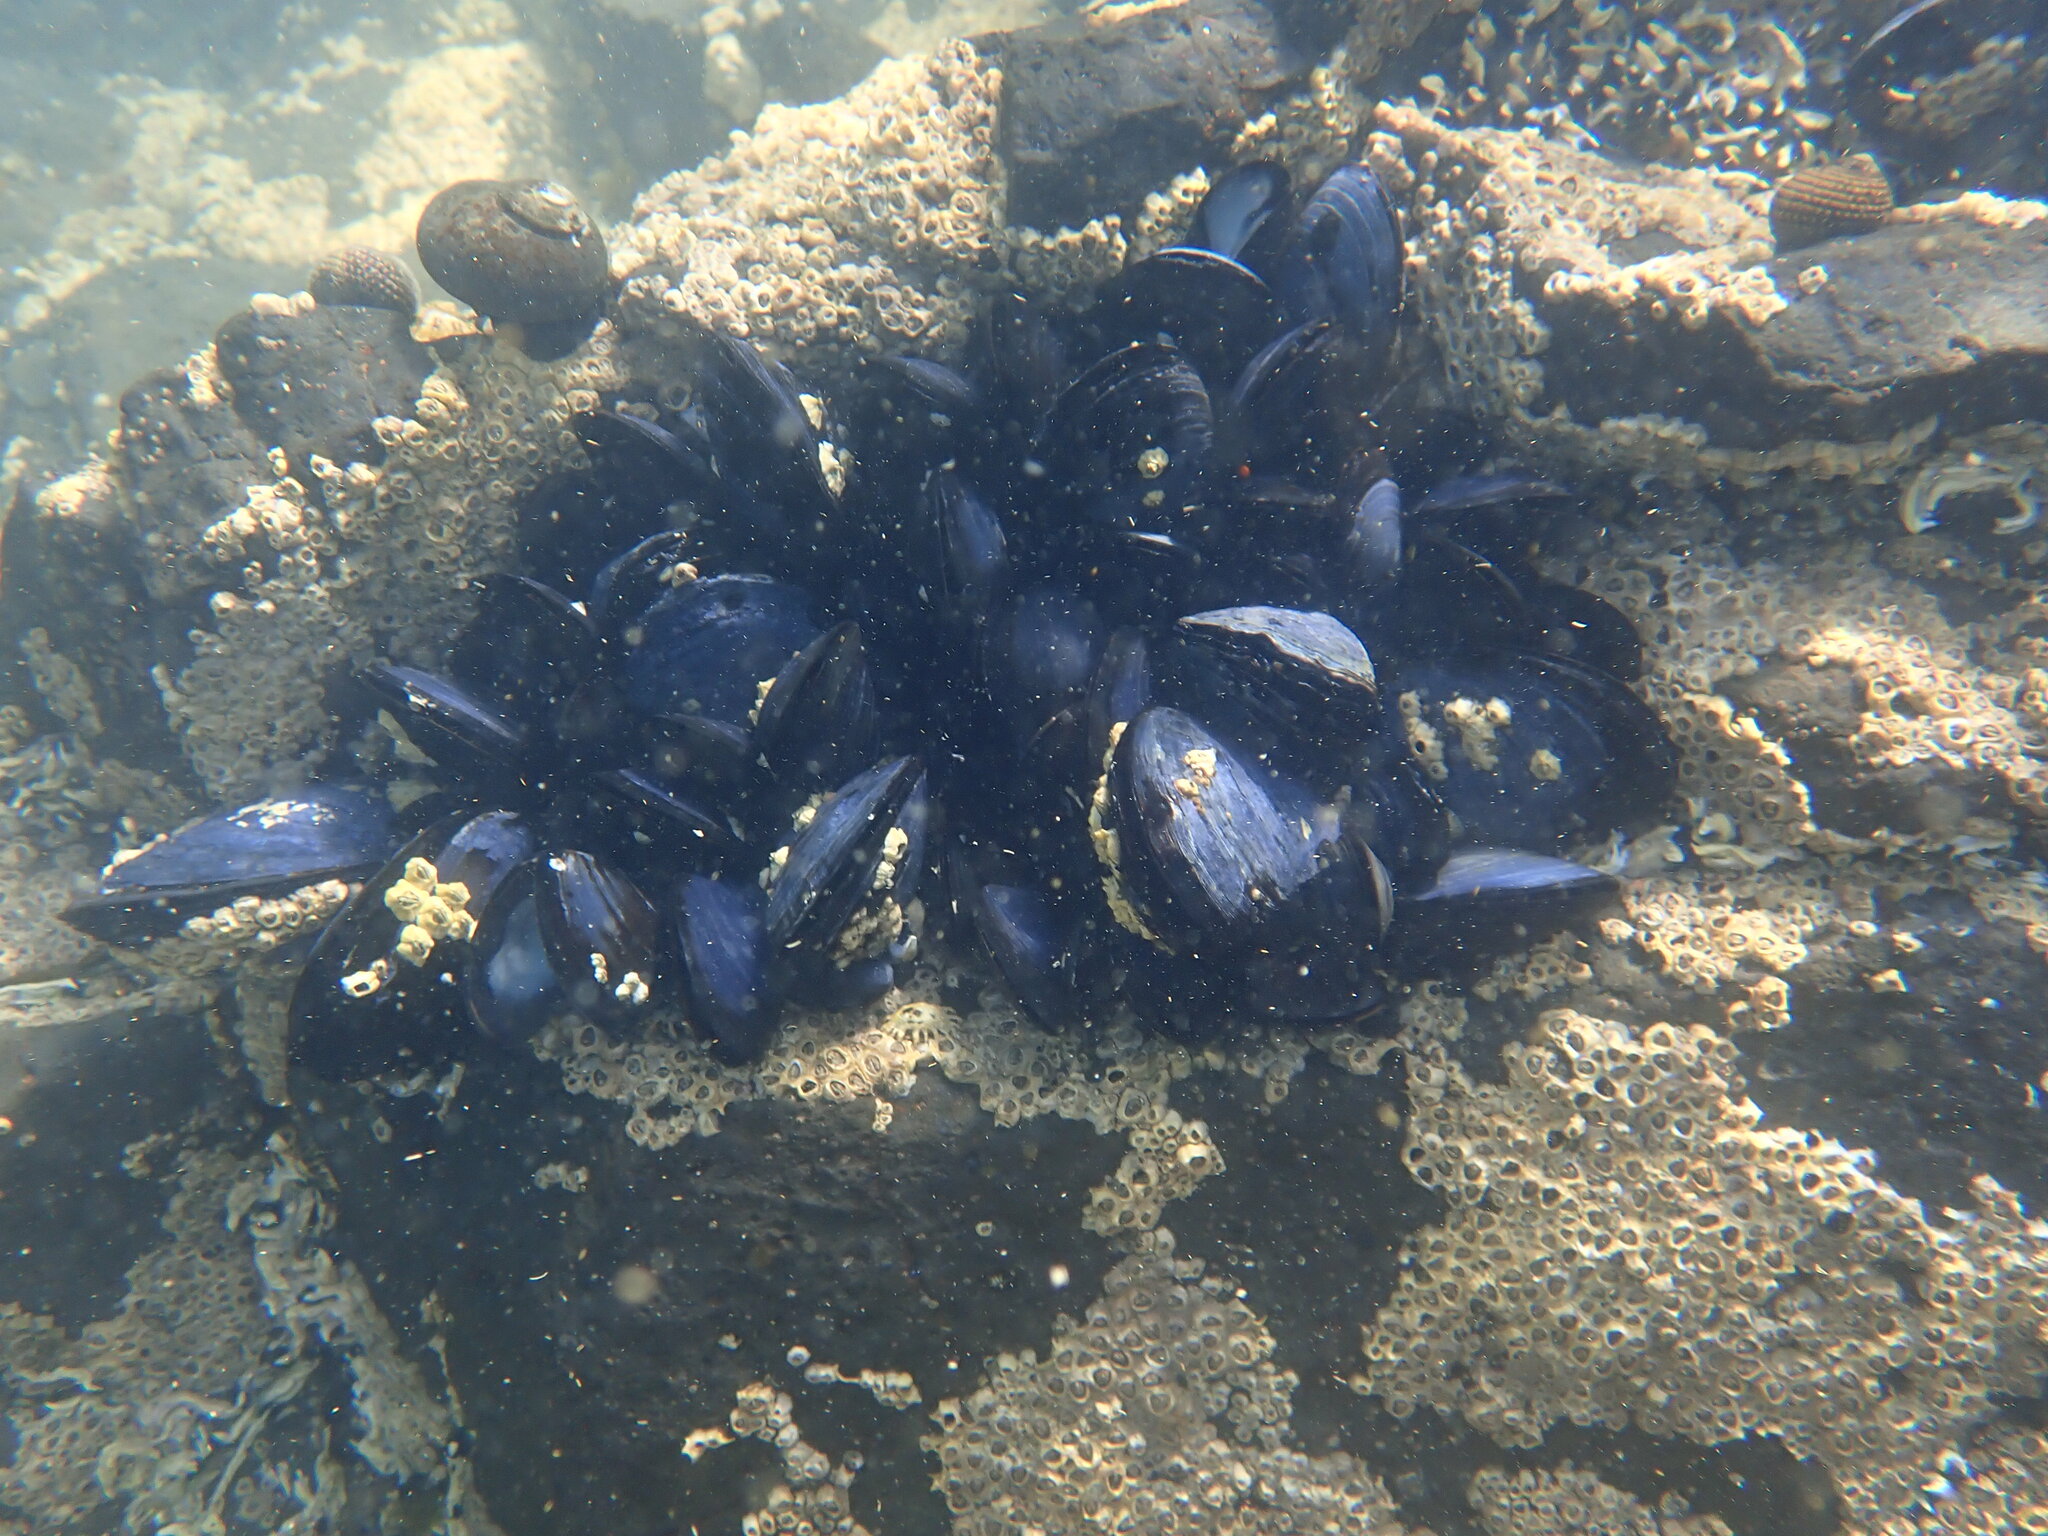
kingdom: Animalia
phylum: Mollusca
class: Bivalvia
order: Mytilida
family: Mytilidae
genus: Mytilus
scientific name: Mytilus planulatus
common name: Australian mussel
